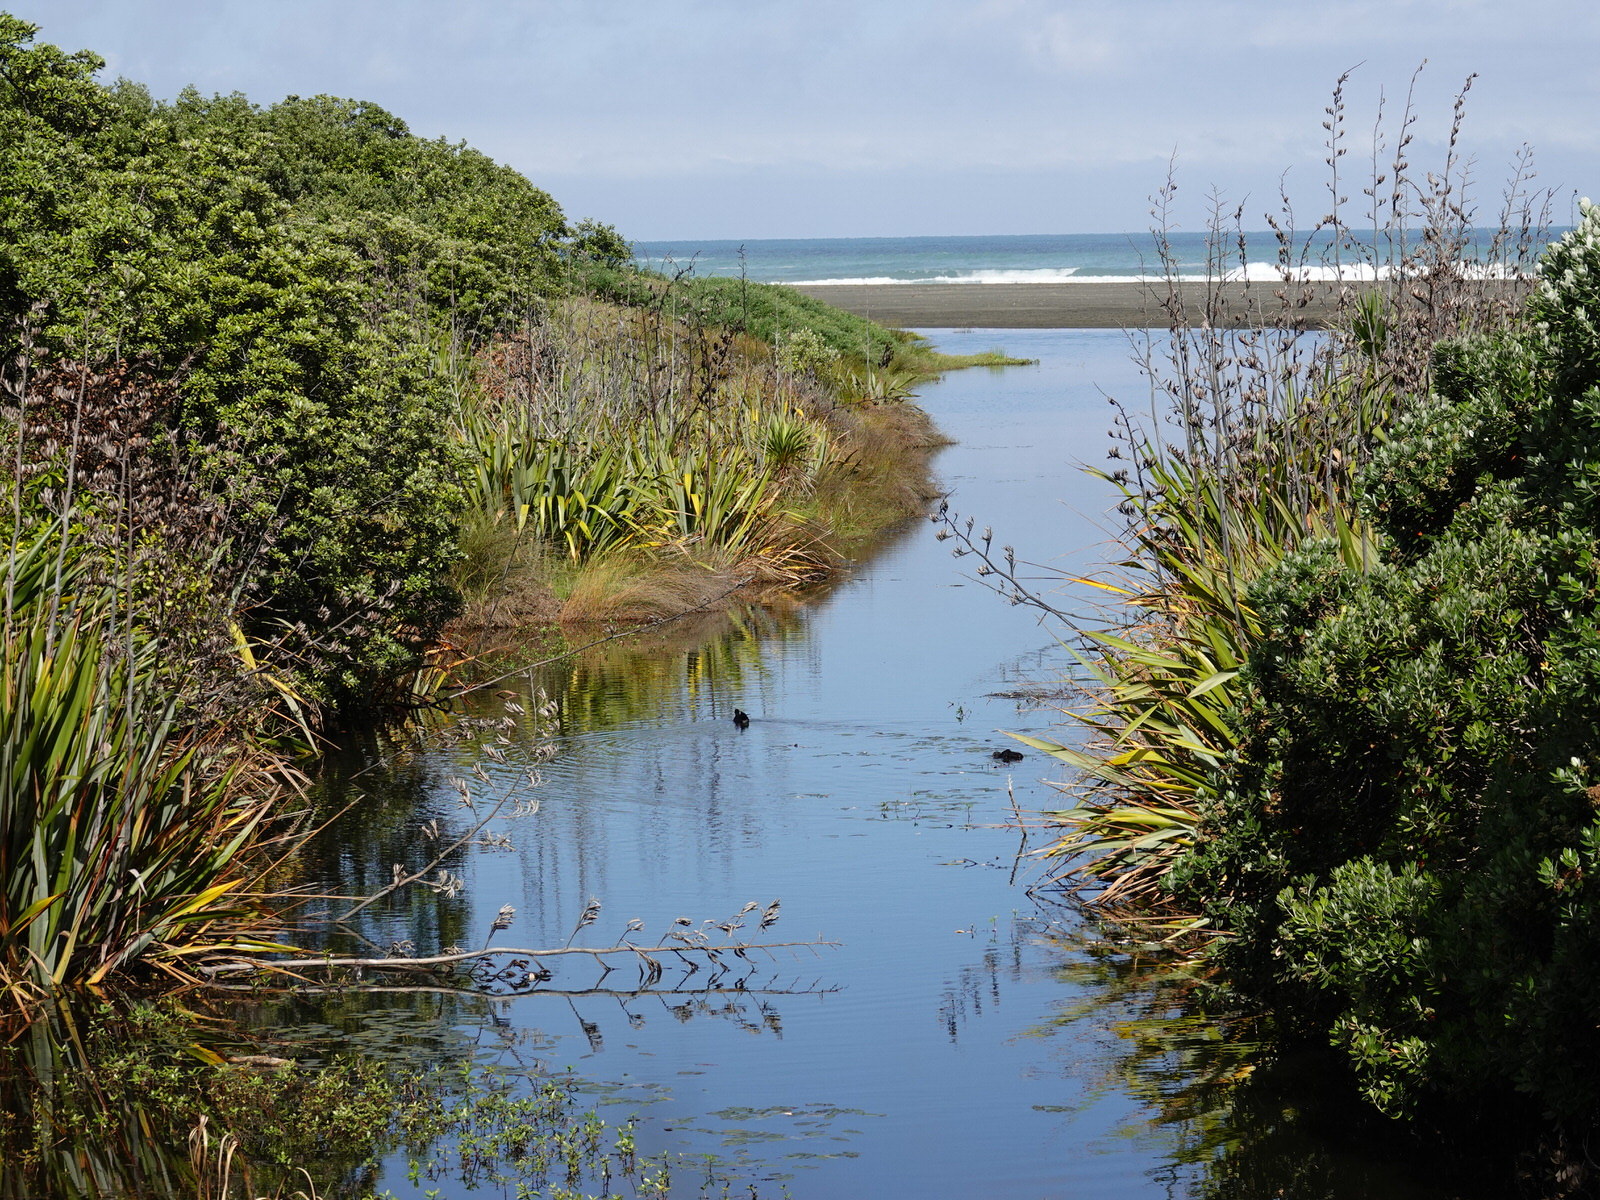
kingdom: Animalia
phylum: Chordata
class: Aves
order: Gruiformes
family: Rallidae
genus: Porphyrio
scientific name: Porphyrio melanotus
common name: Australasian swamphen
